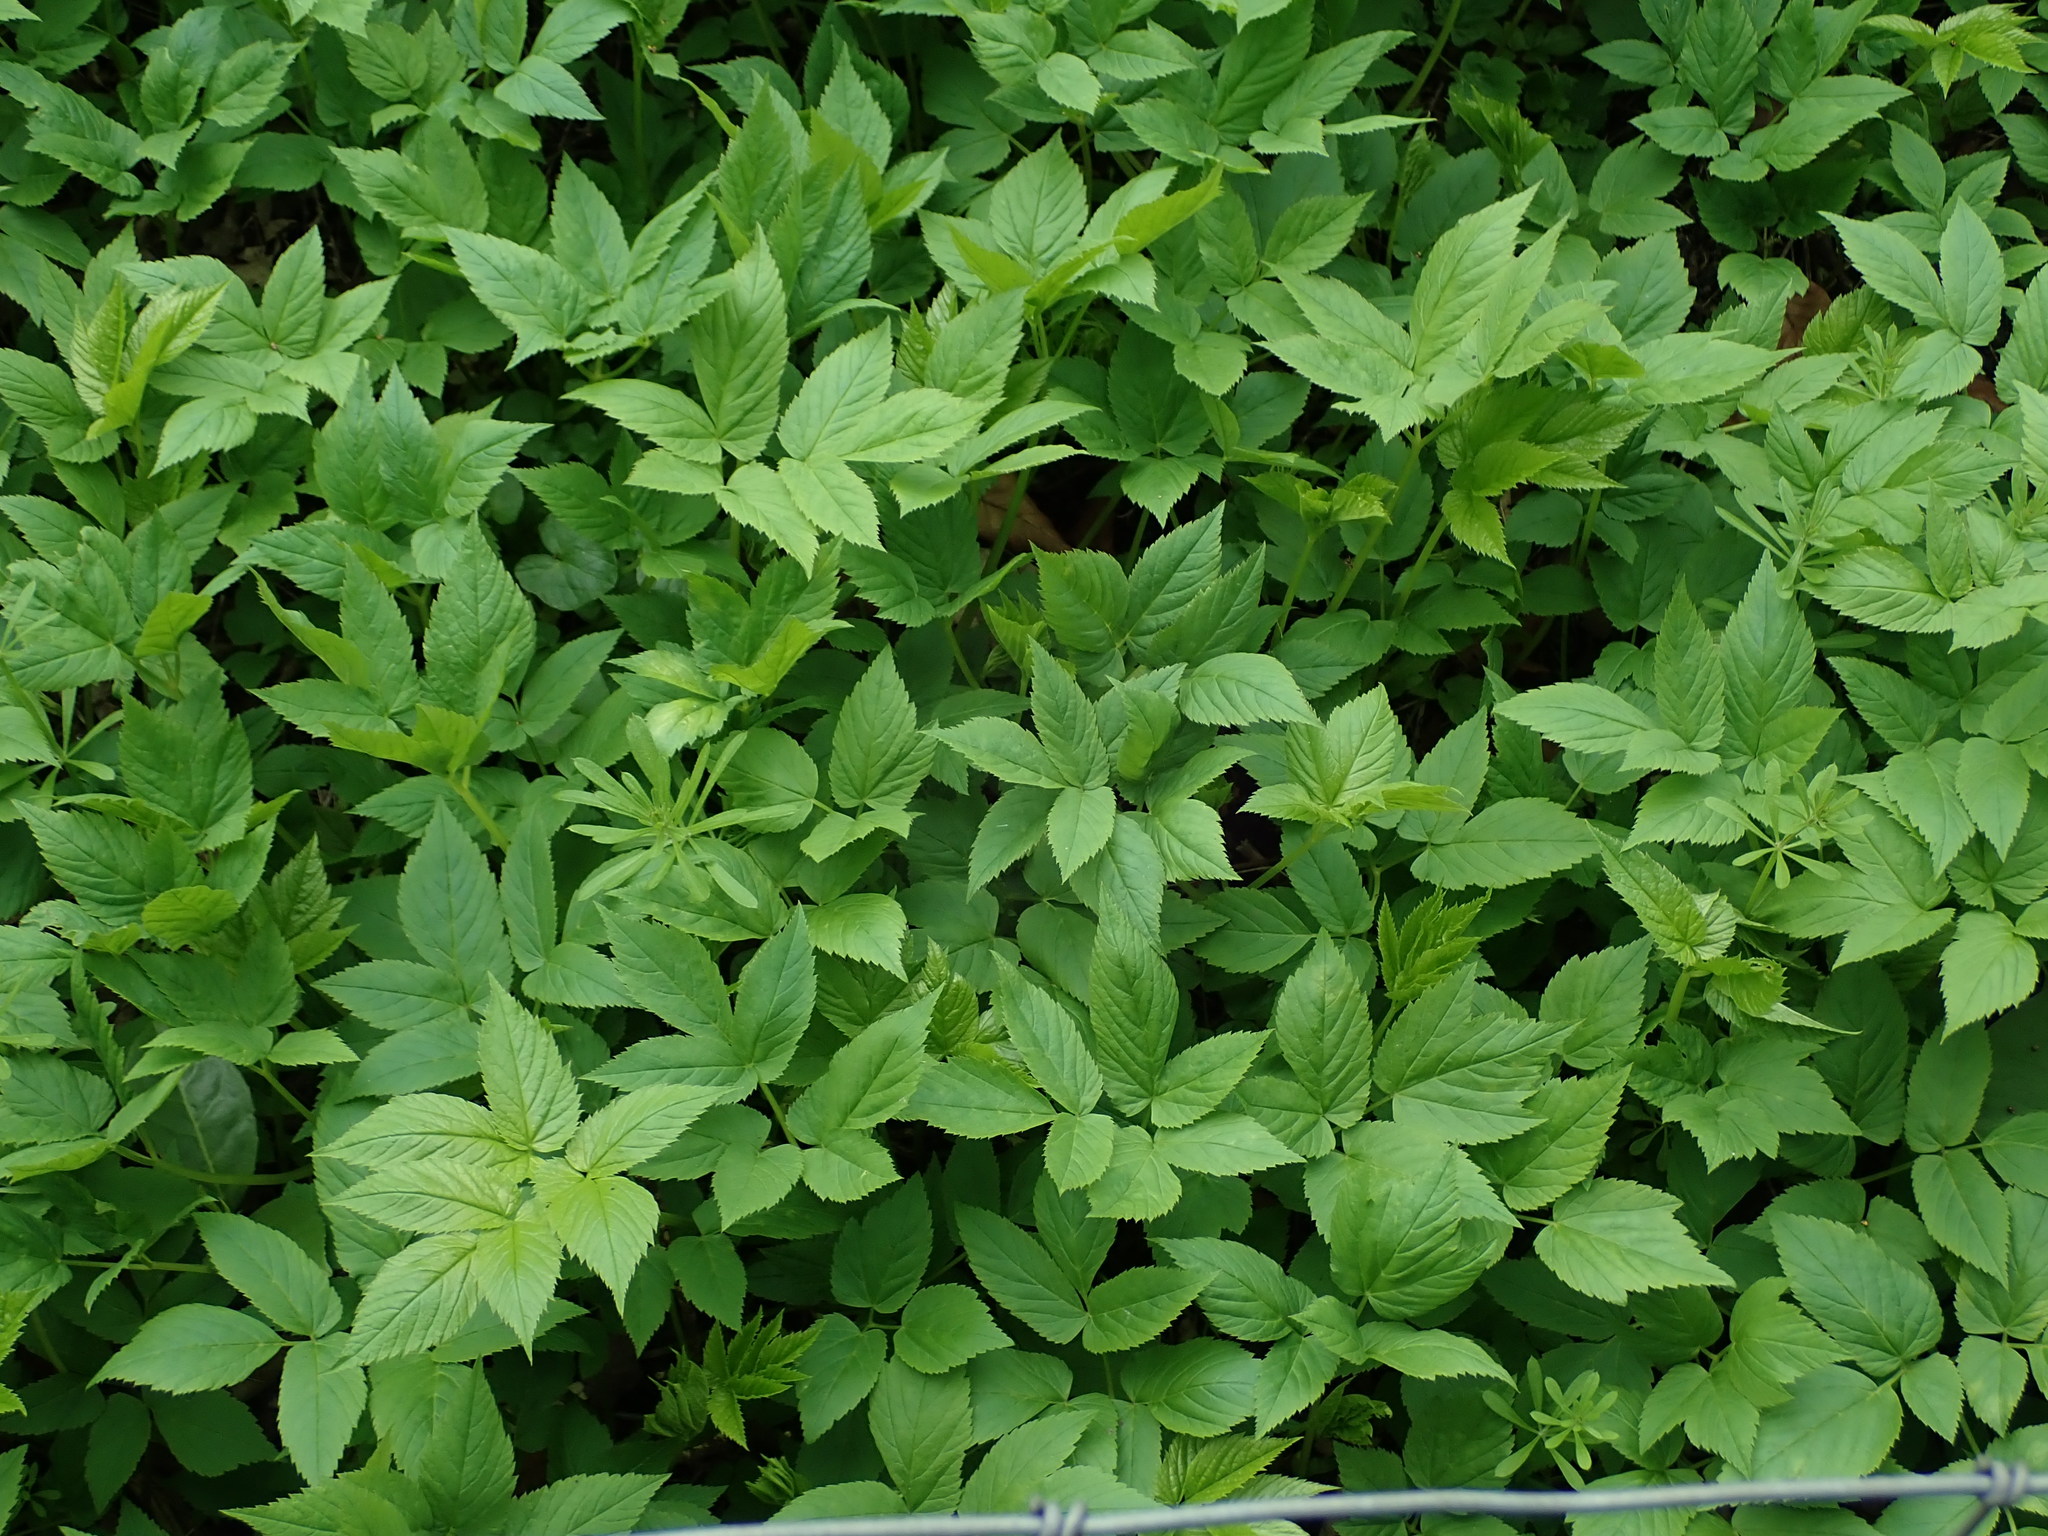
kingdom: Plantae
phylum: Tracheophyta
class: Magnoliopsida
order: Apiales
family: Apiaceae
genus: Aegopodium
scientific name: Aegopodium podagraria
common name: Ground-elder
